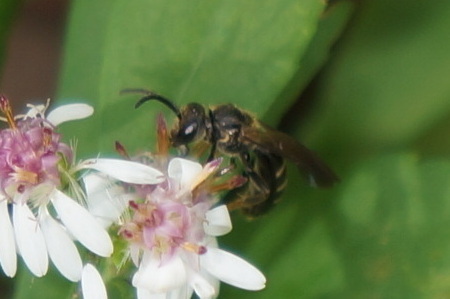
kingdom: Animalia
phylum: Arthropoda
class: Insecta
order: Hymenoptera
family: Halictidae
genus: Lasioglossum
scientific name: Lasioglossum fuscipenne
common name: Brown-winged sweat bee
